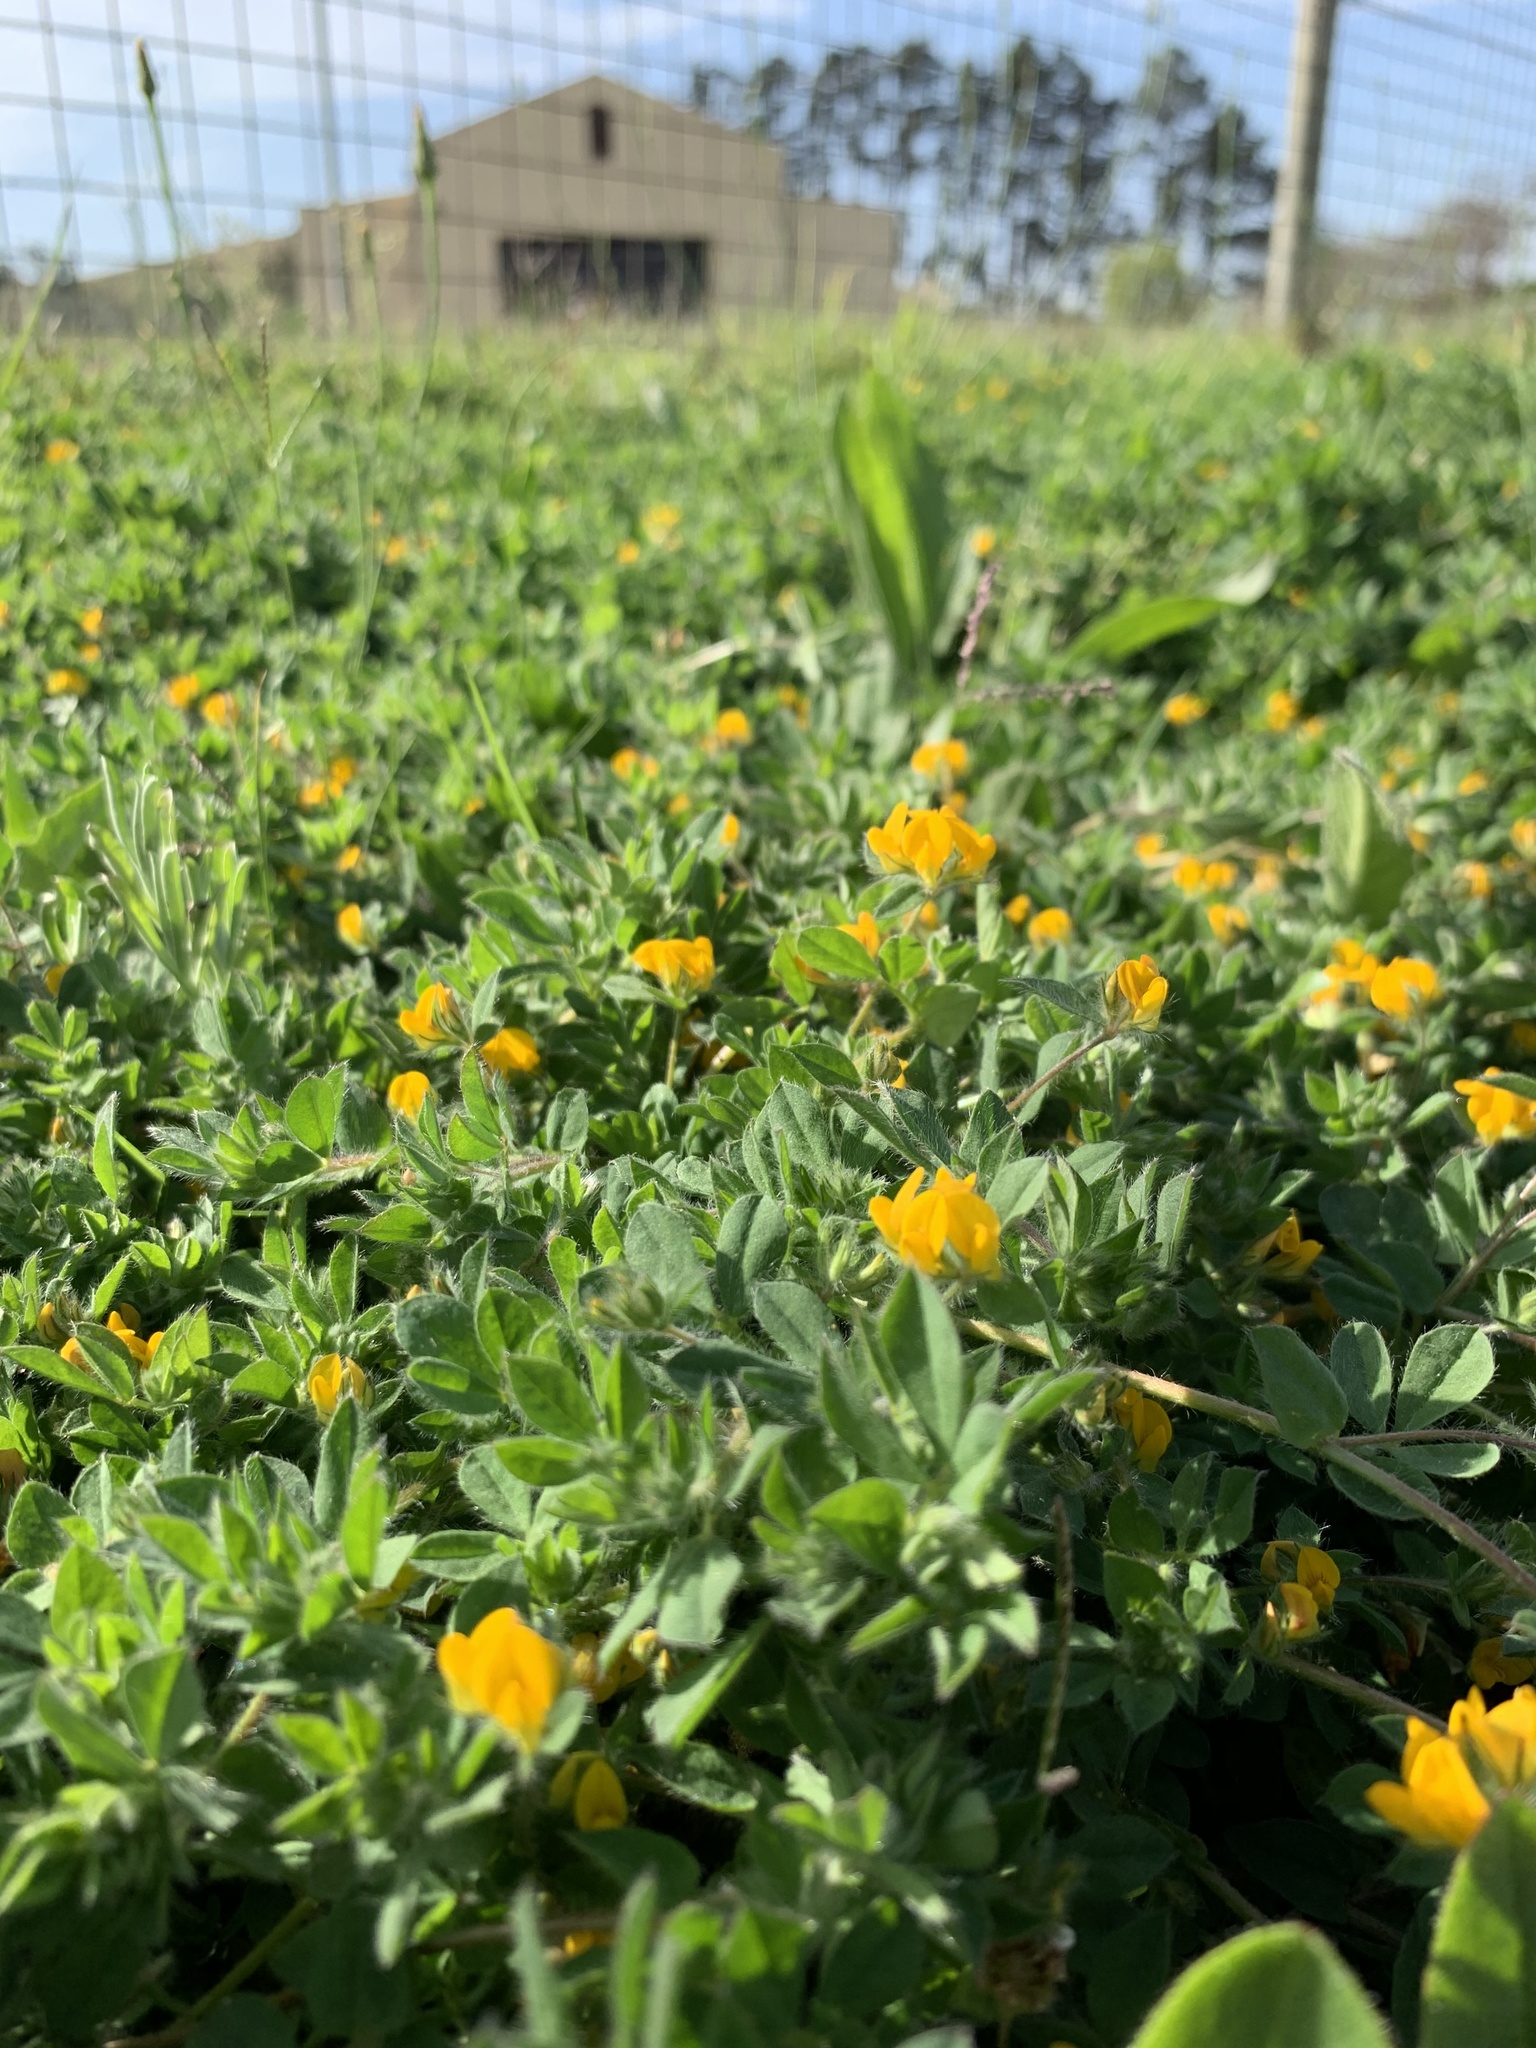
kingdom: Plantae
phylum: Tracheophyta
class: Magnoliopsida
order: Fabales
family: Fabaceae
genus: Lotus
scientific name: Lotus subbiflorus
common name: Hairy bird's-foot trefoil
